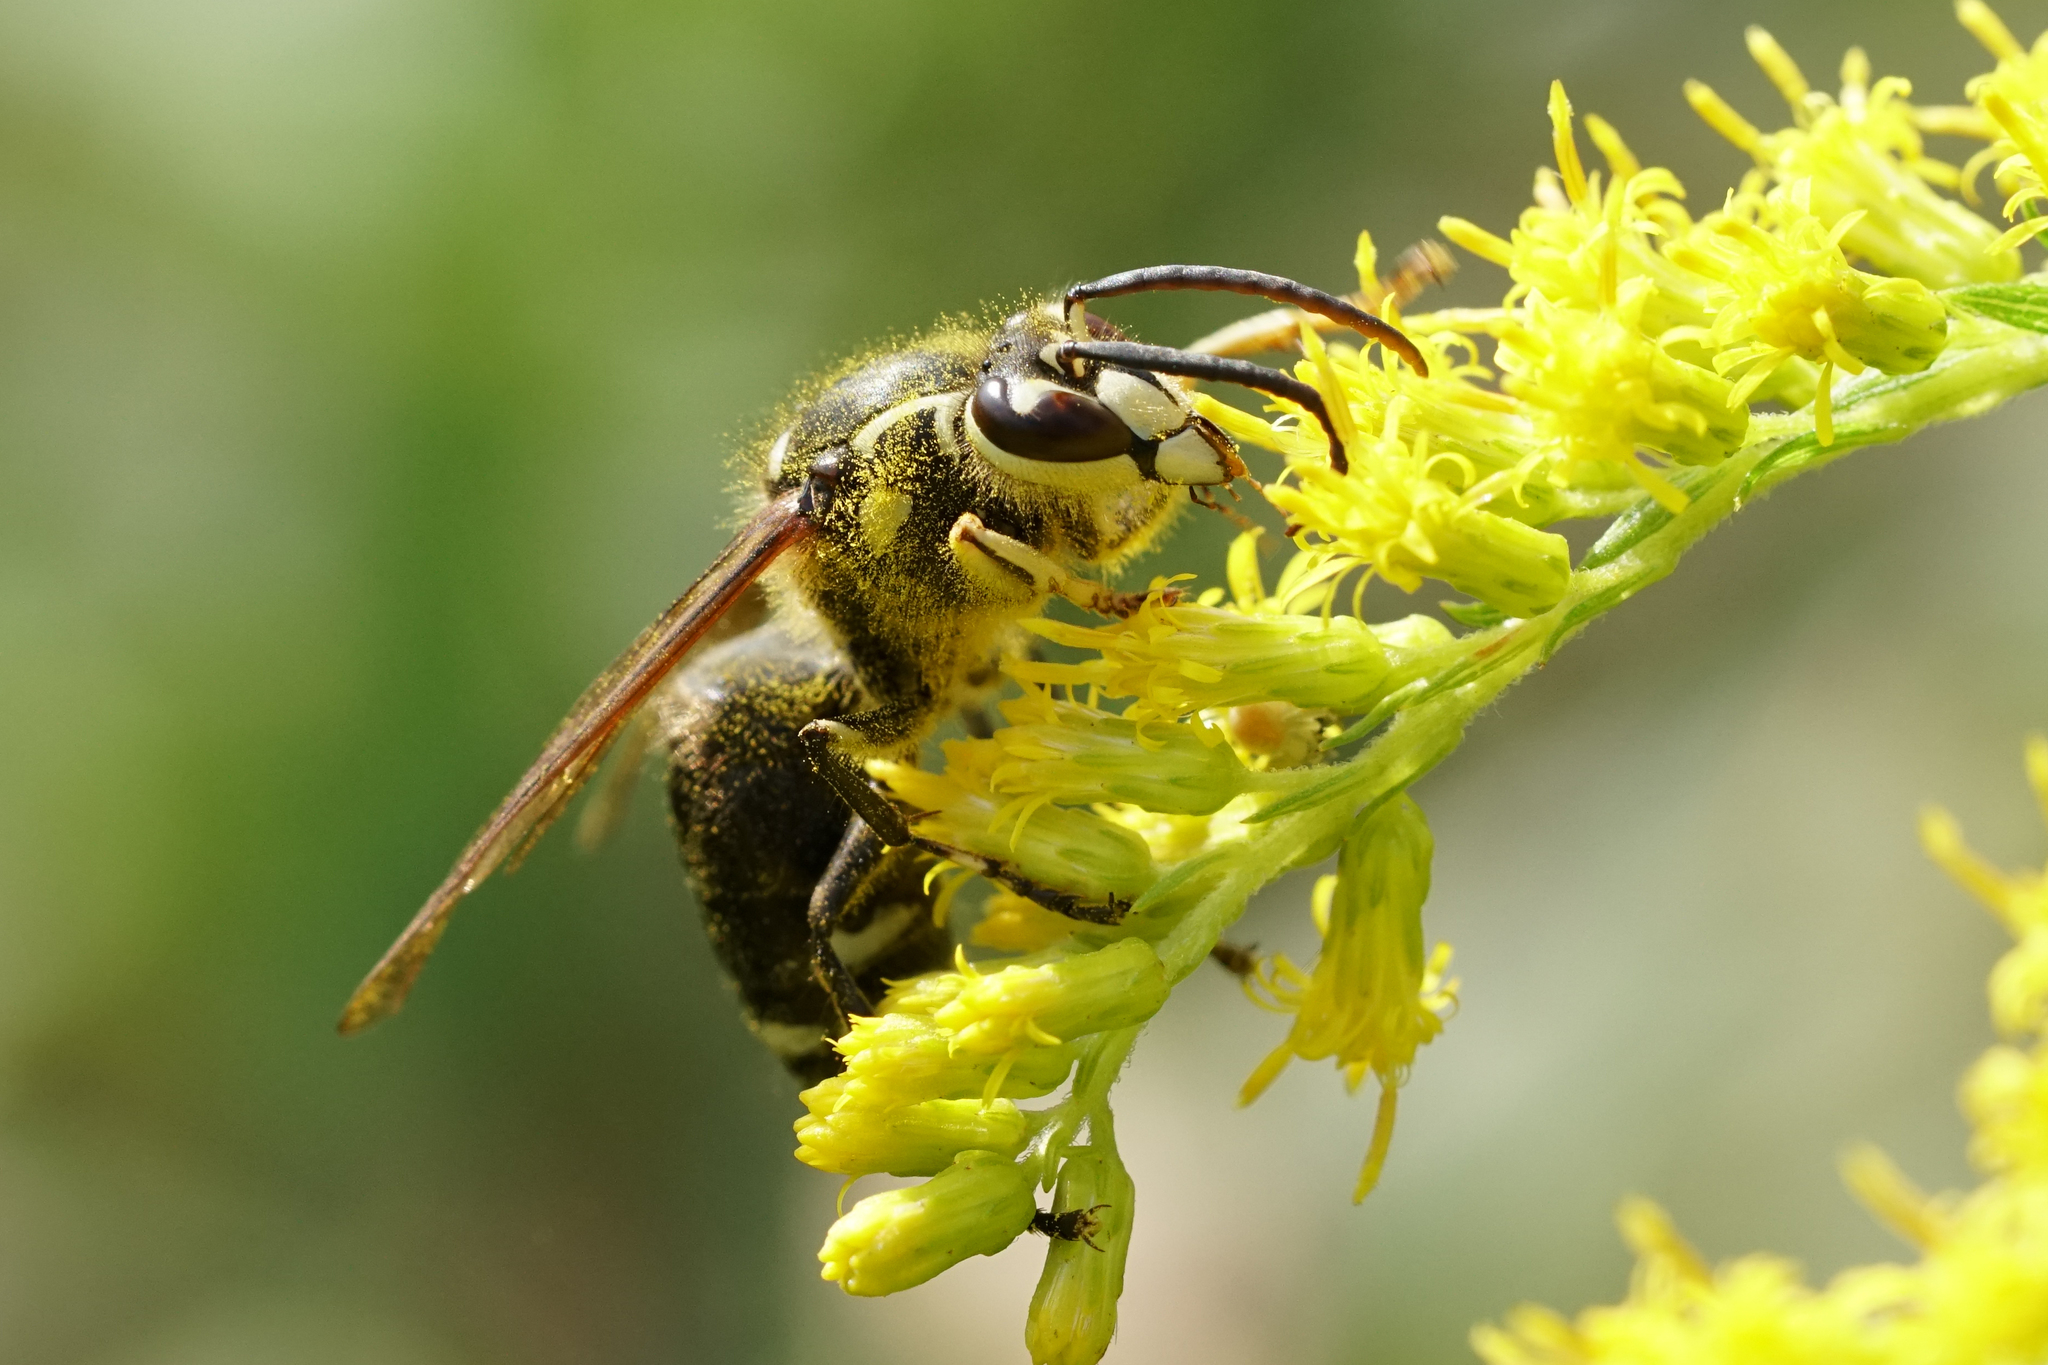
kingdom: Animalia
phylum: Arthropoda
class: Insecta
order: Hymenoptera
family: Vespidae
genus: Dolichovespula
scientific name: Dolichovespula maculata
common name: Bald-faced hornet
